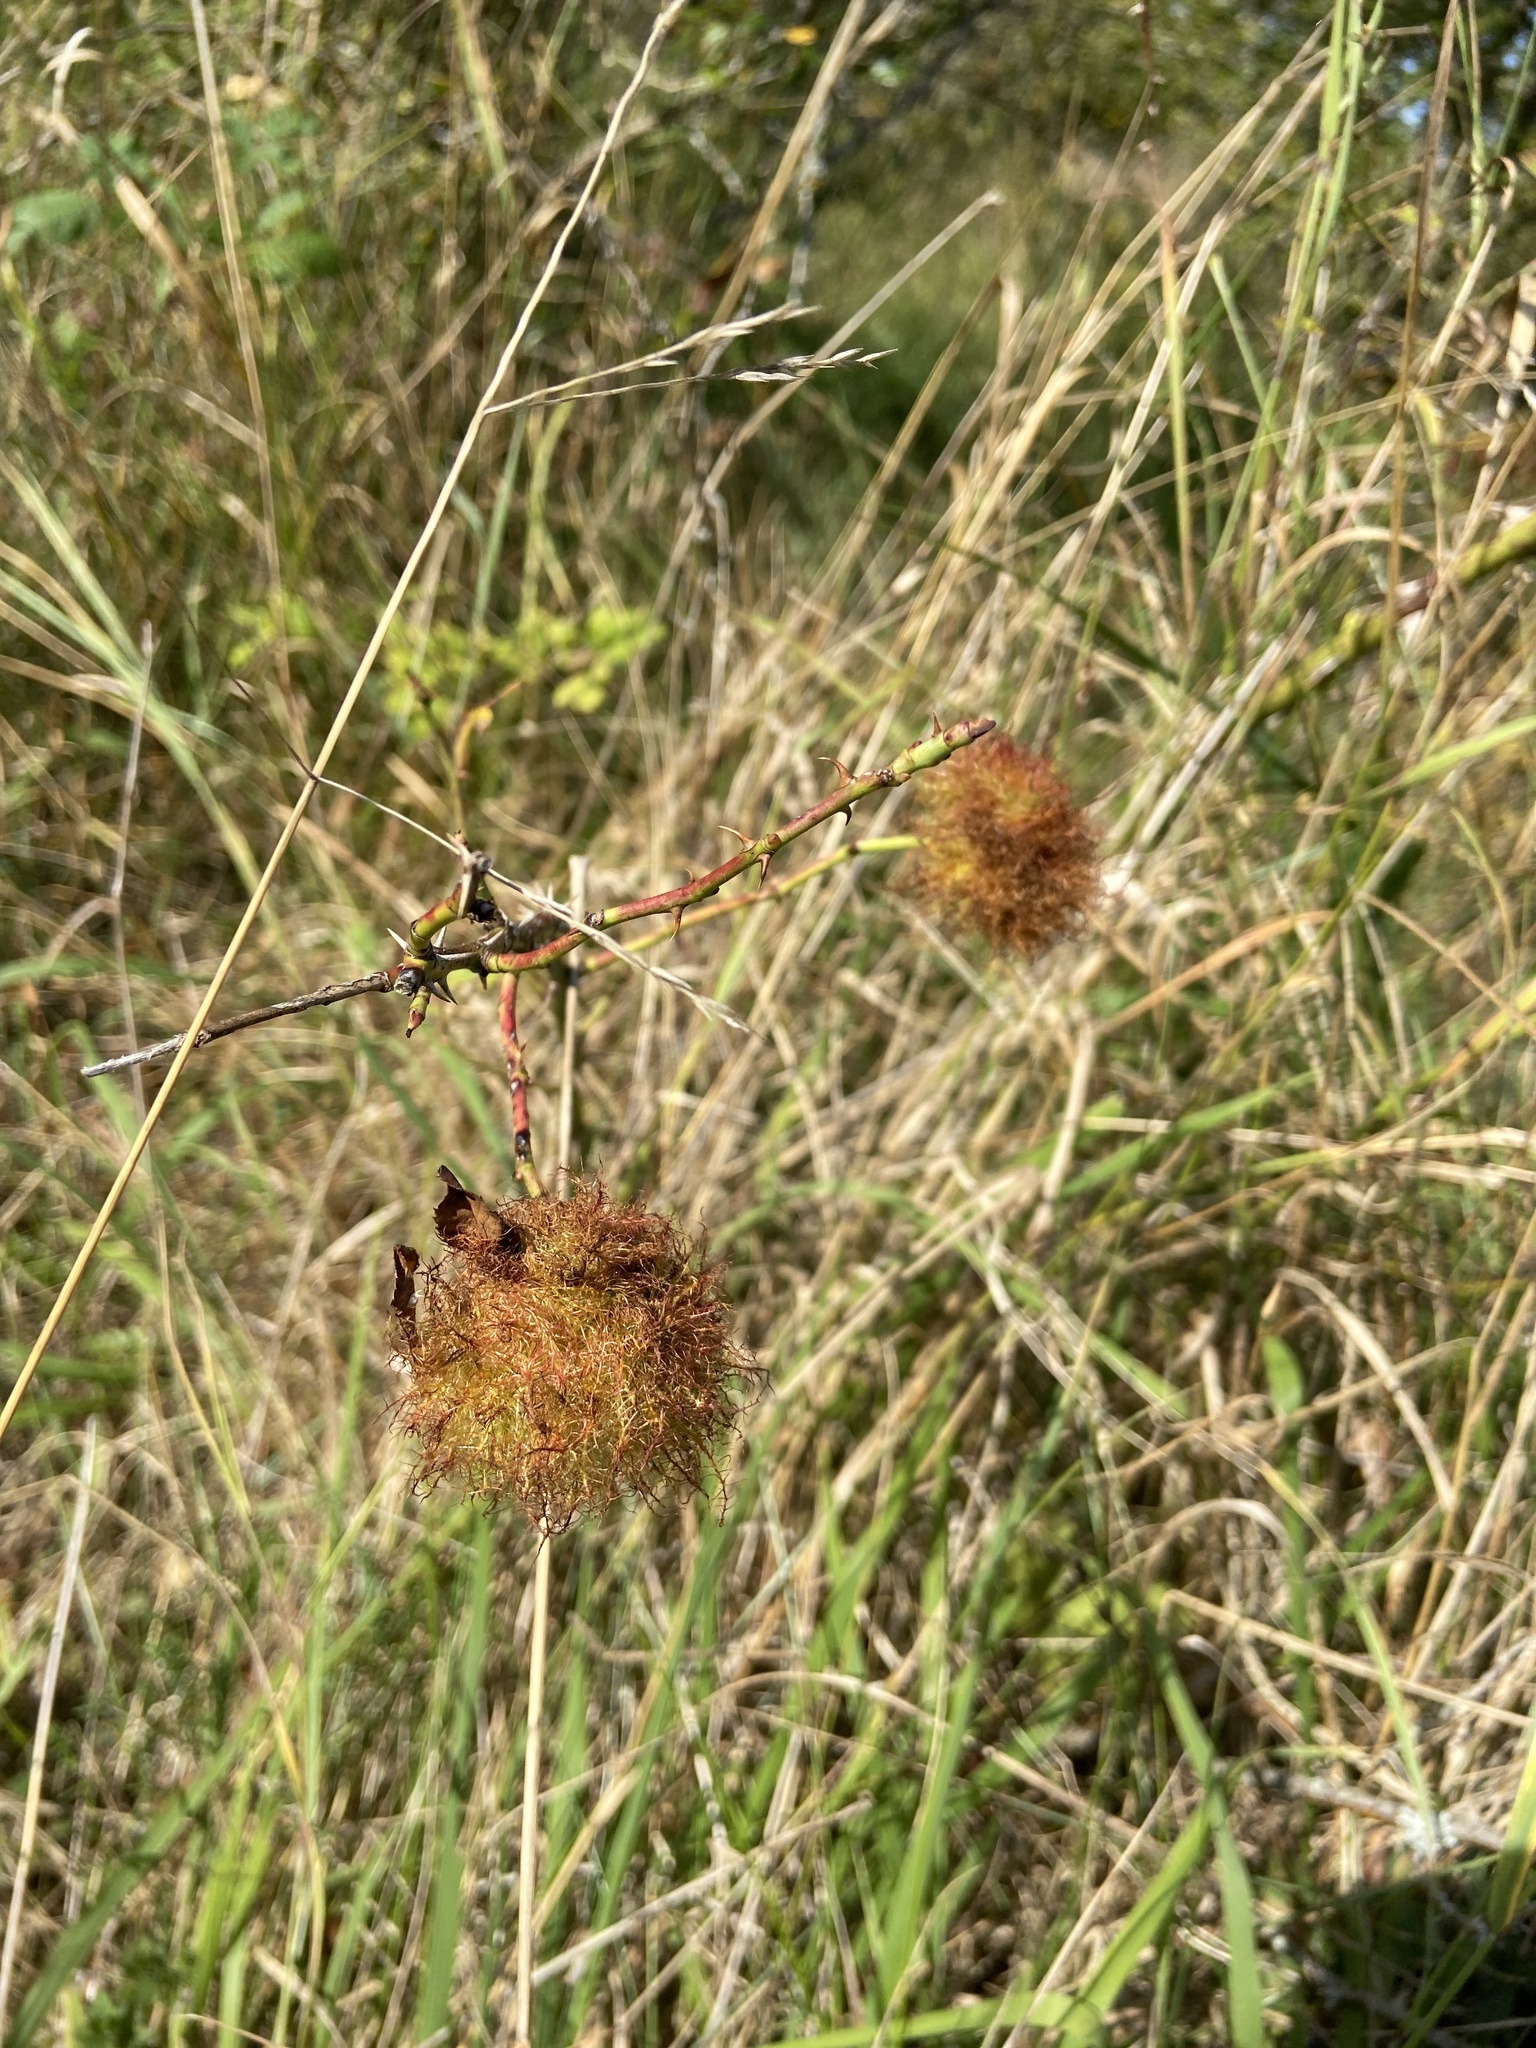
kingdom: Animalia
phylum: Arthropoda
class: Insecta
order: Hymenoptera
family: Cynipidae
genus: Diplolepis
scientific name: Diplolepis rosae
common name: Bedeguar gall
